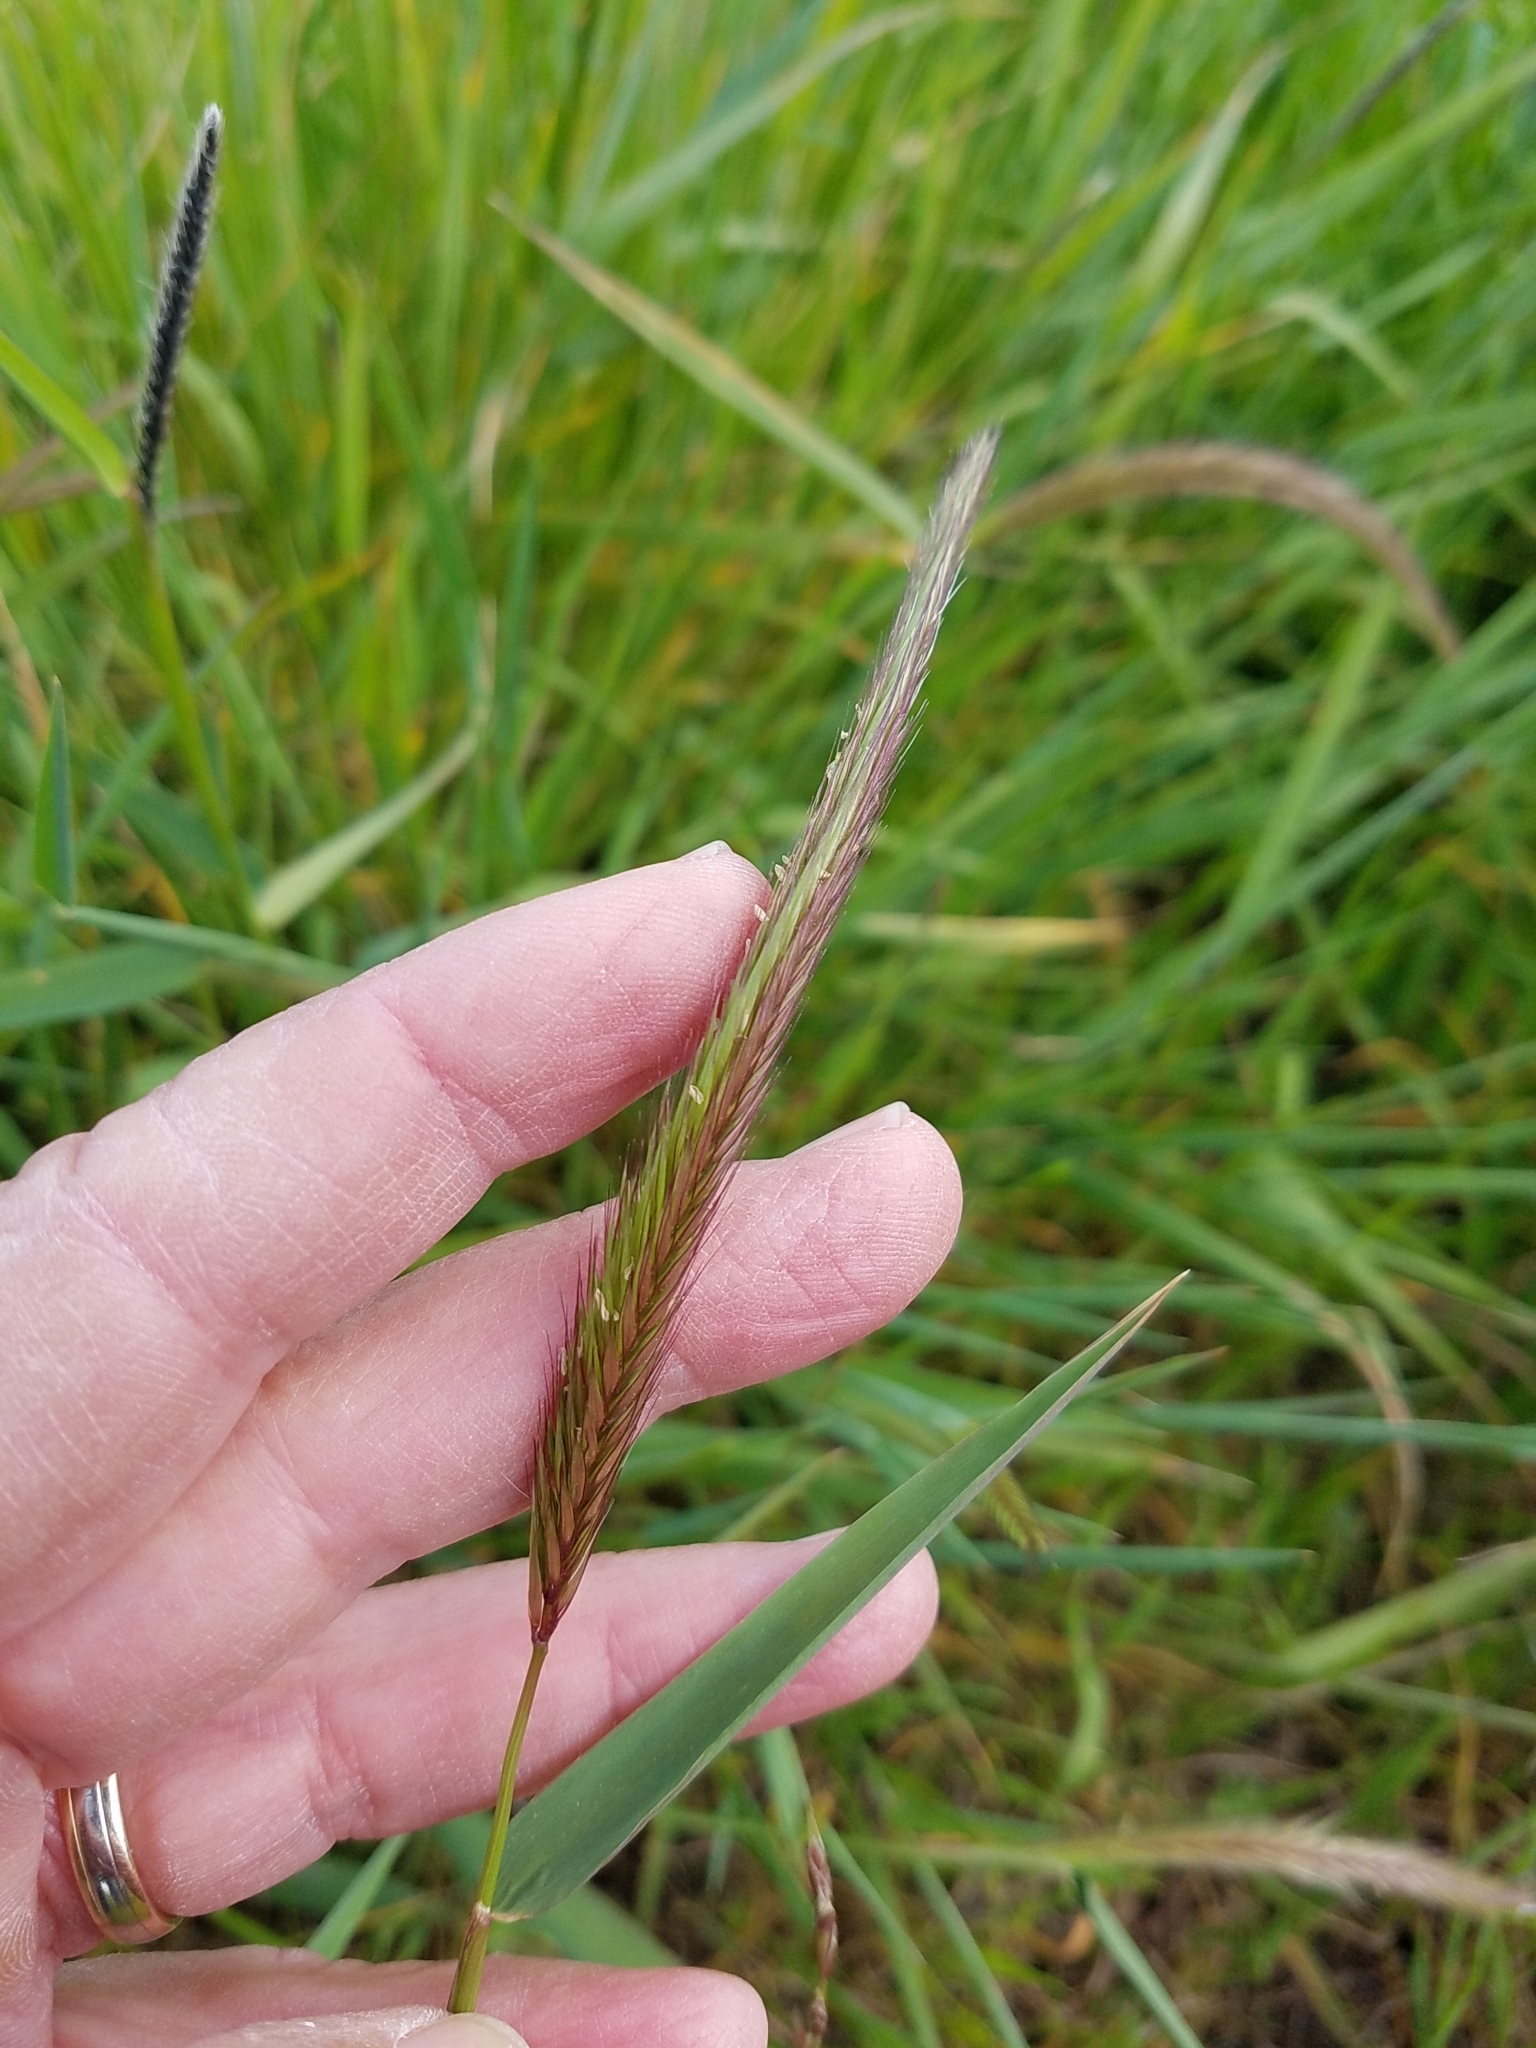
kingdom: Plantae
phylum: Tracheophyta
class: Liliopsida
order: Poales
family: Poaceae
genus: Hordeum
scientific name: Hordeum brachyantherum
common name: Meadow barley
